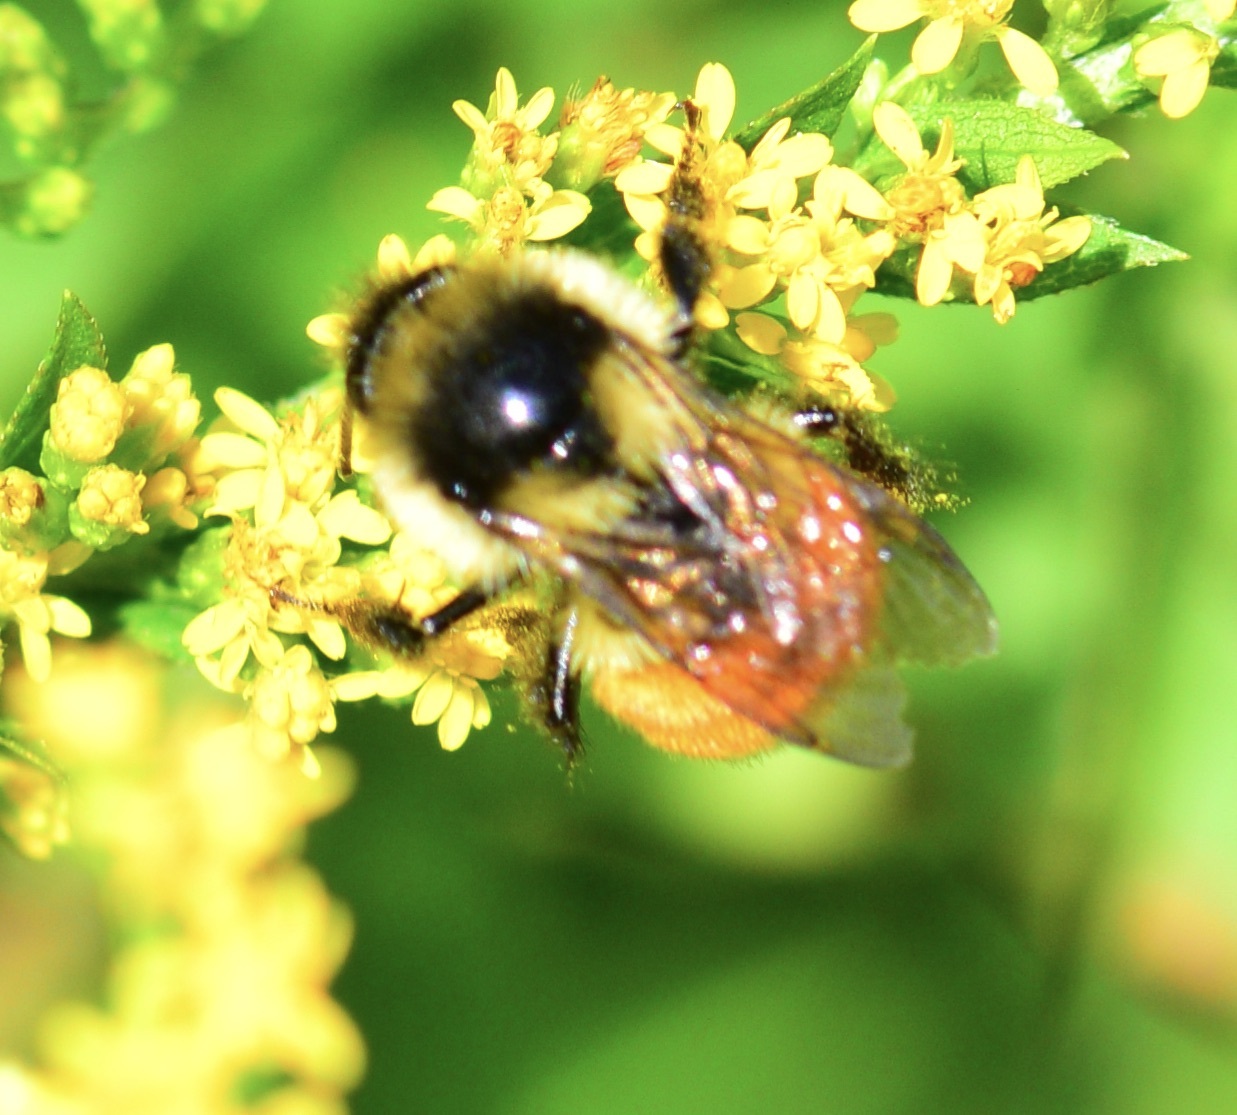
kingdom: Animalia
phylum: Arthropoda
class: Insecta
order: Hymenoptera
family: Apidae
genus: Bombus
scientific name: Bombus ternarius
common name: Tri-colored bumble bee
